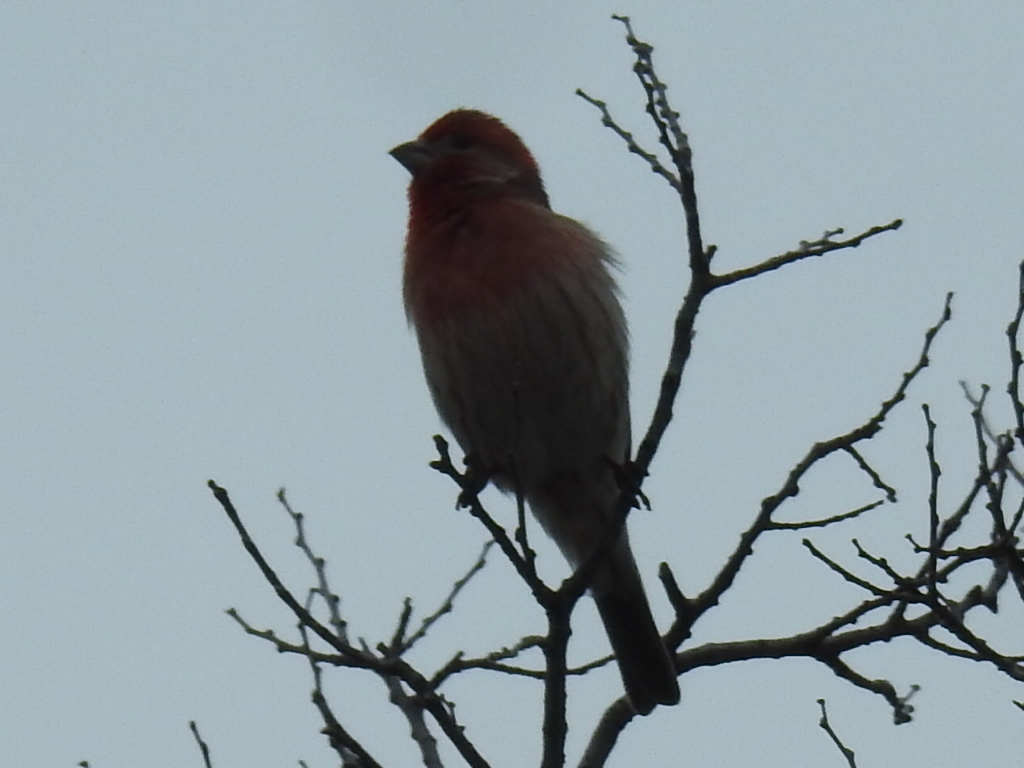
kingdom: Animalia
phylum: Chordata
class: Aves
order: Passeriformes
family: Fringillidae
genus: Haemorhous
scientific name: Haemorhous mexicanus
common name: House finch
